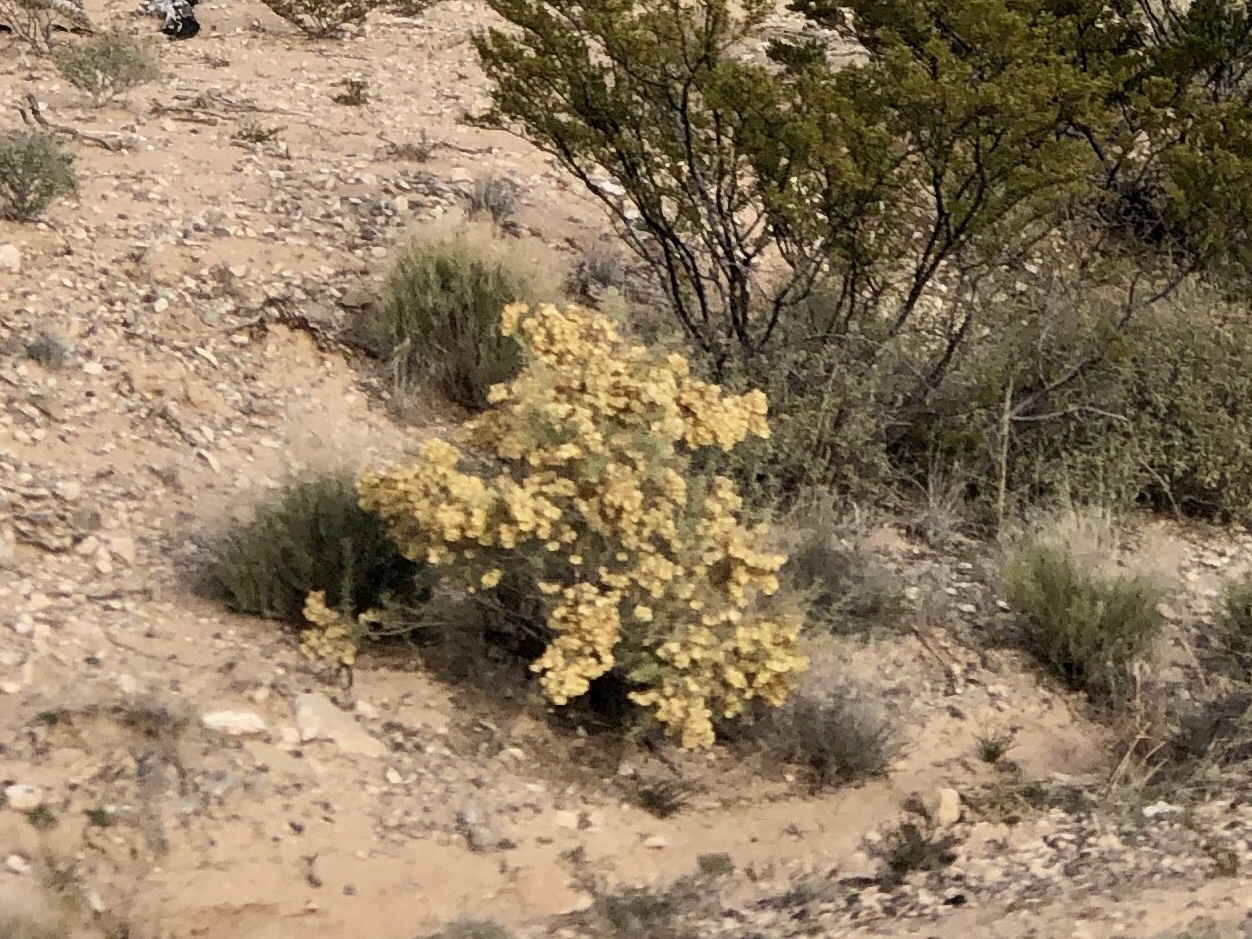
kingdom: Plantae
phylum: Tracheophyta
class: Magnoliopsida
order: Caryophyllales
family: Amaranthaceae
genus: Atriplex
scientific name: Atriplex canescens
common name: Four-wing saltbush
